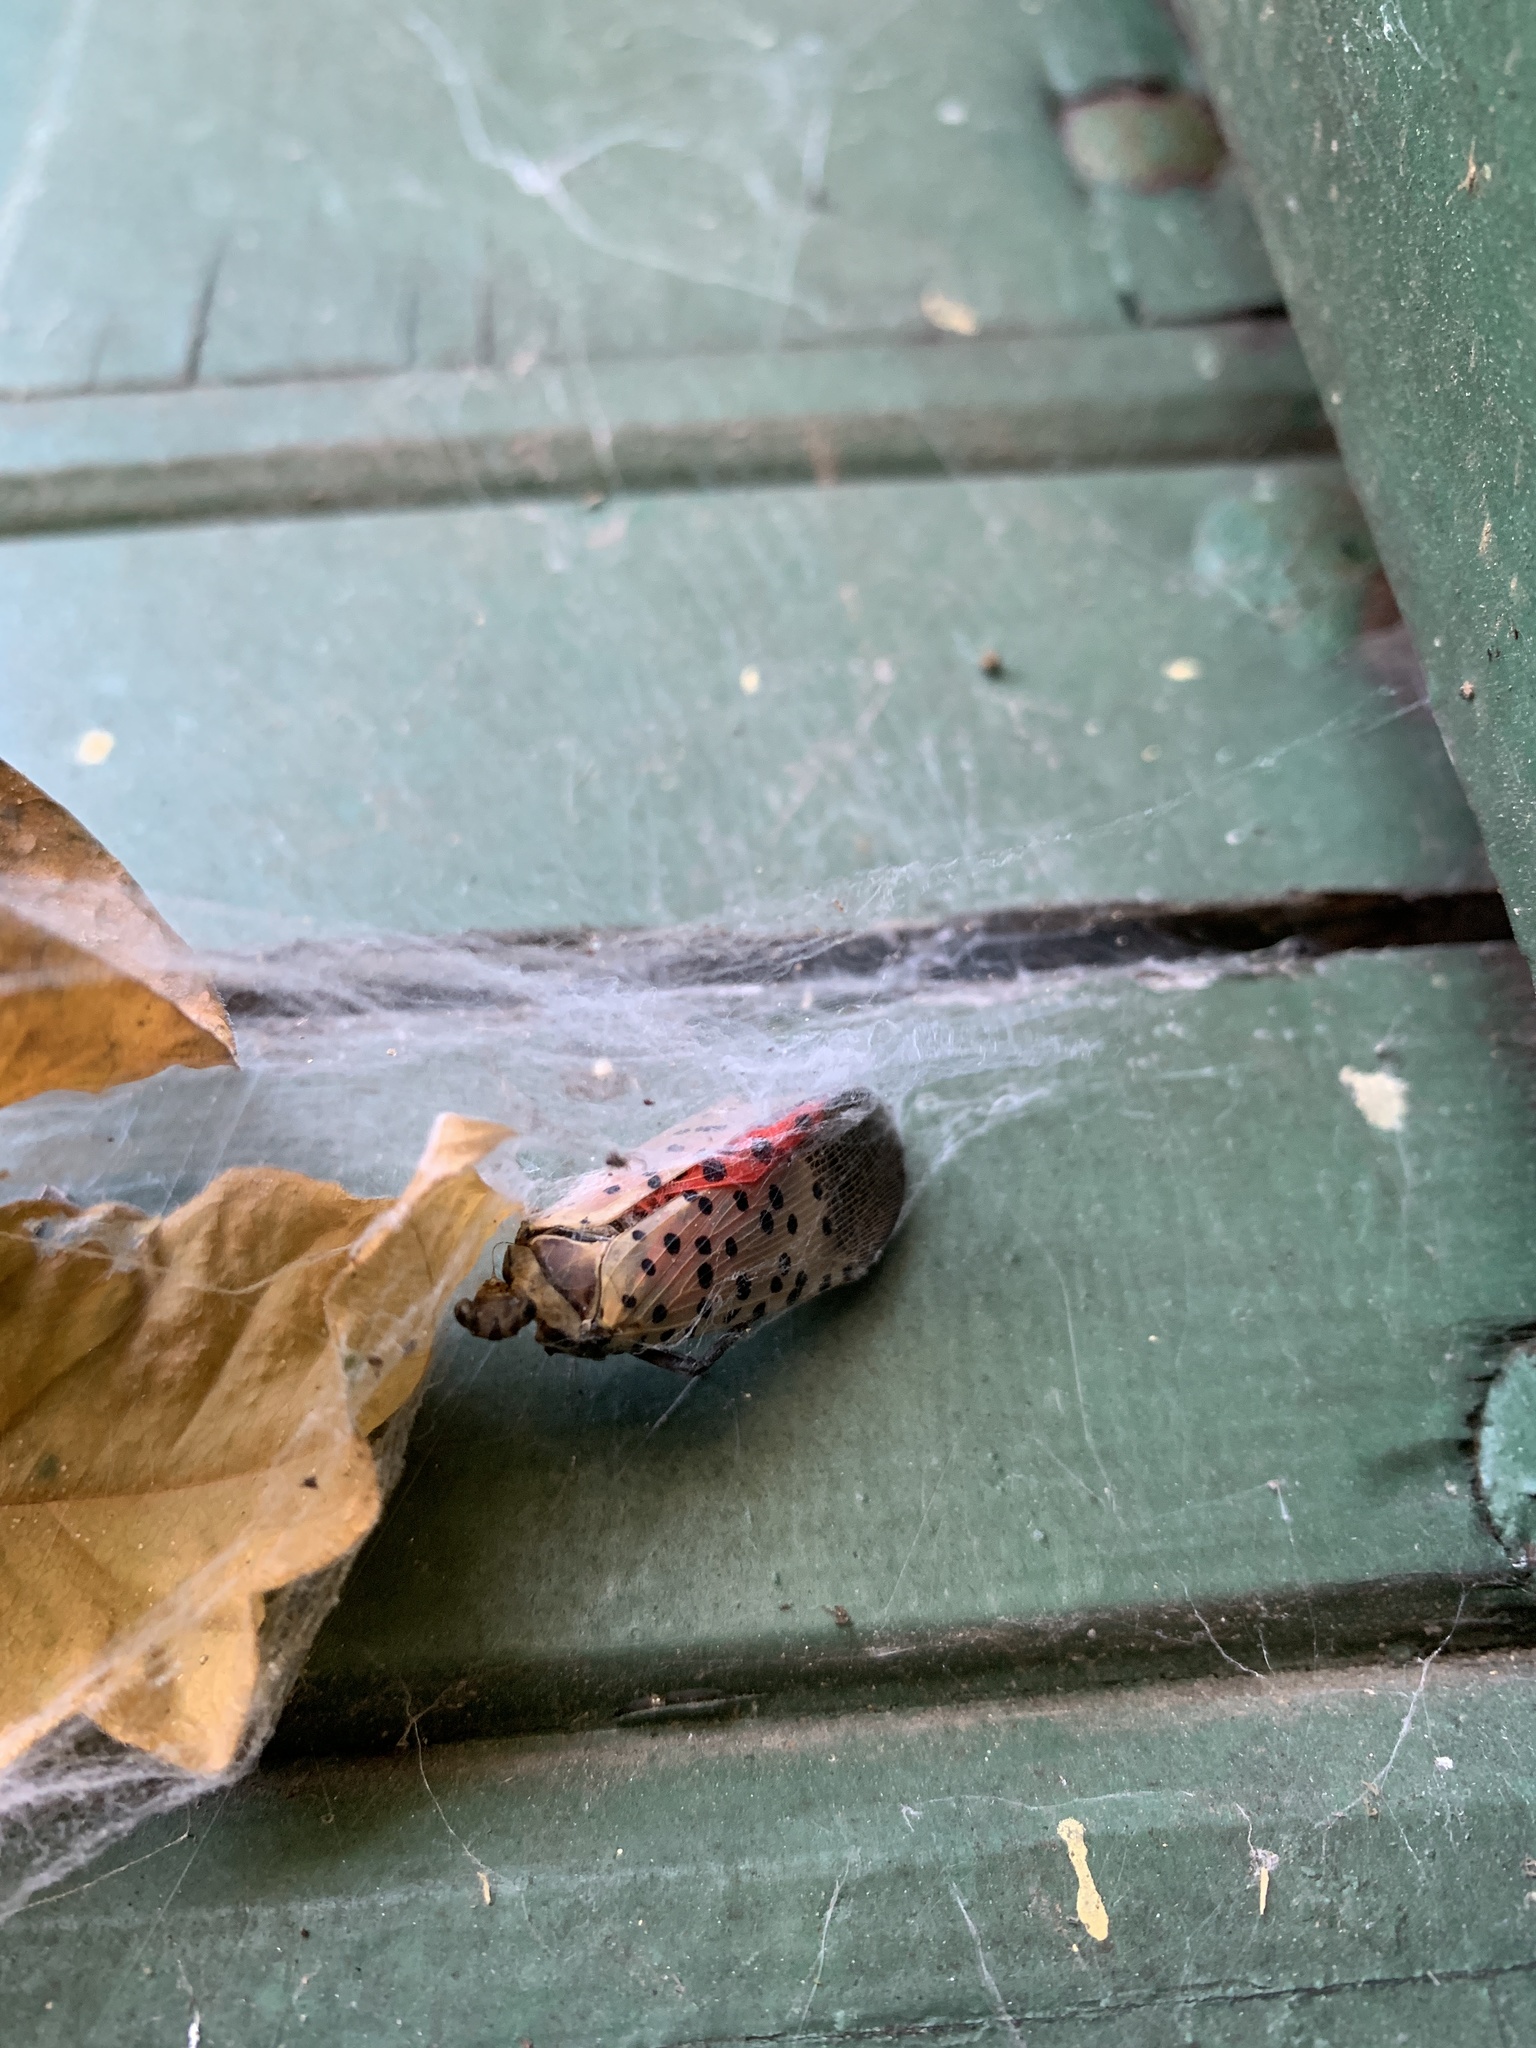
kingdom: Animalia
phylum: Arthropoda
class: Insecta
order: Hemiptera
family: Fulgoridae
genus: Lycorma
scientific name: Lycorma delicatula
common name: Spotted lanternfly
